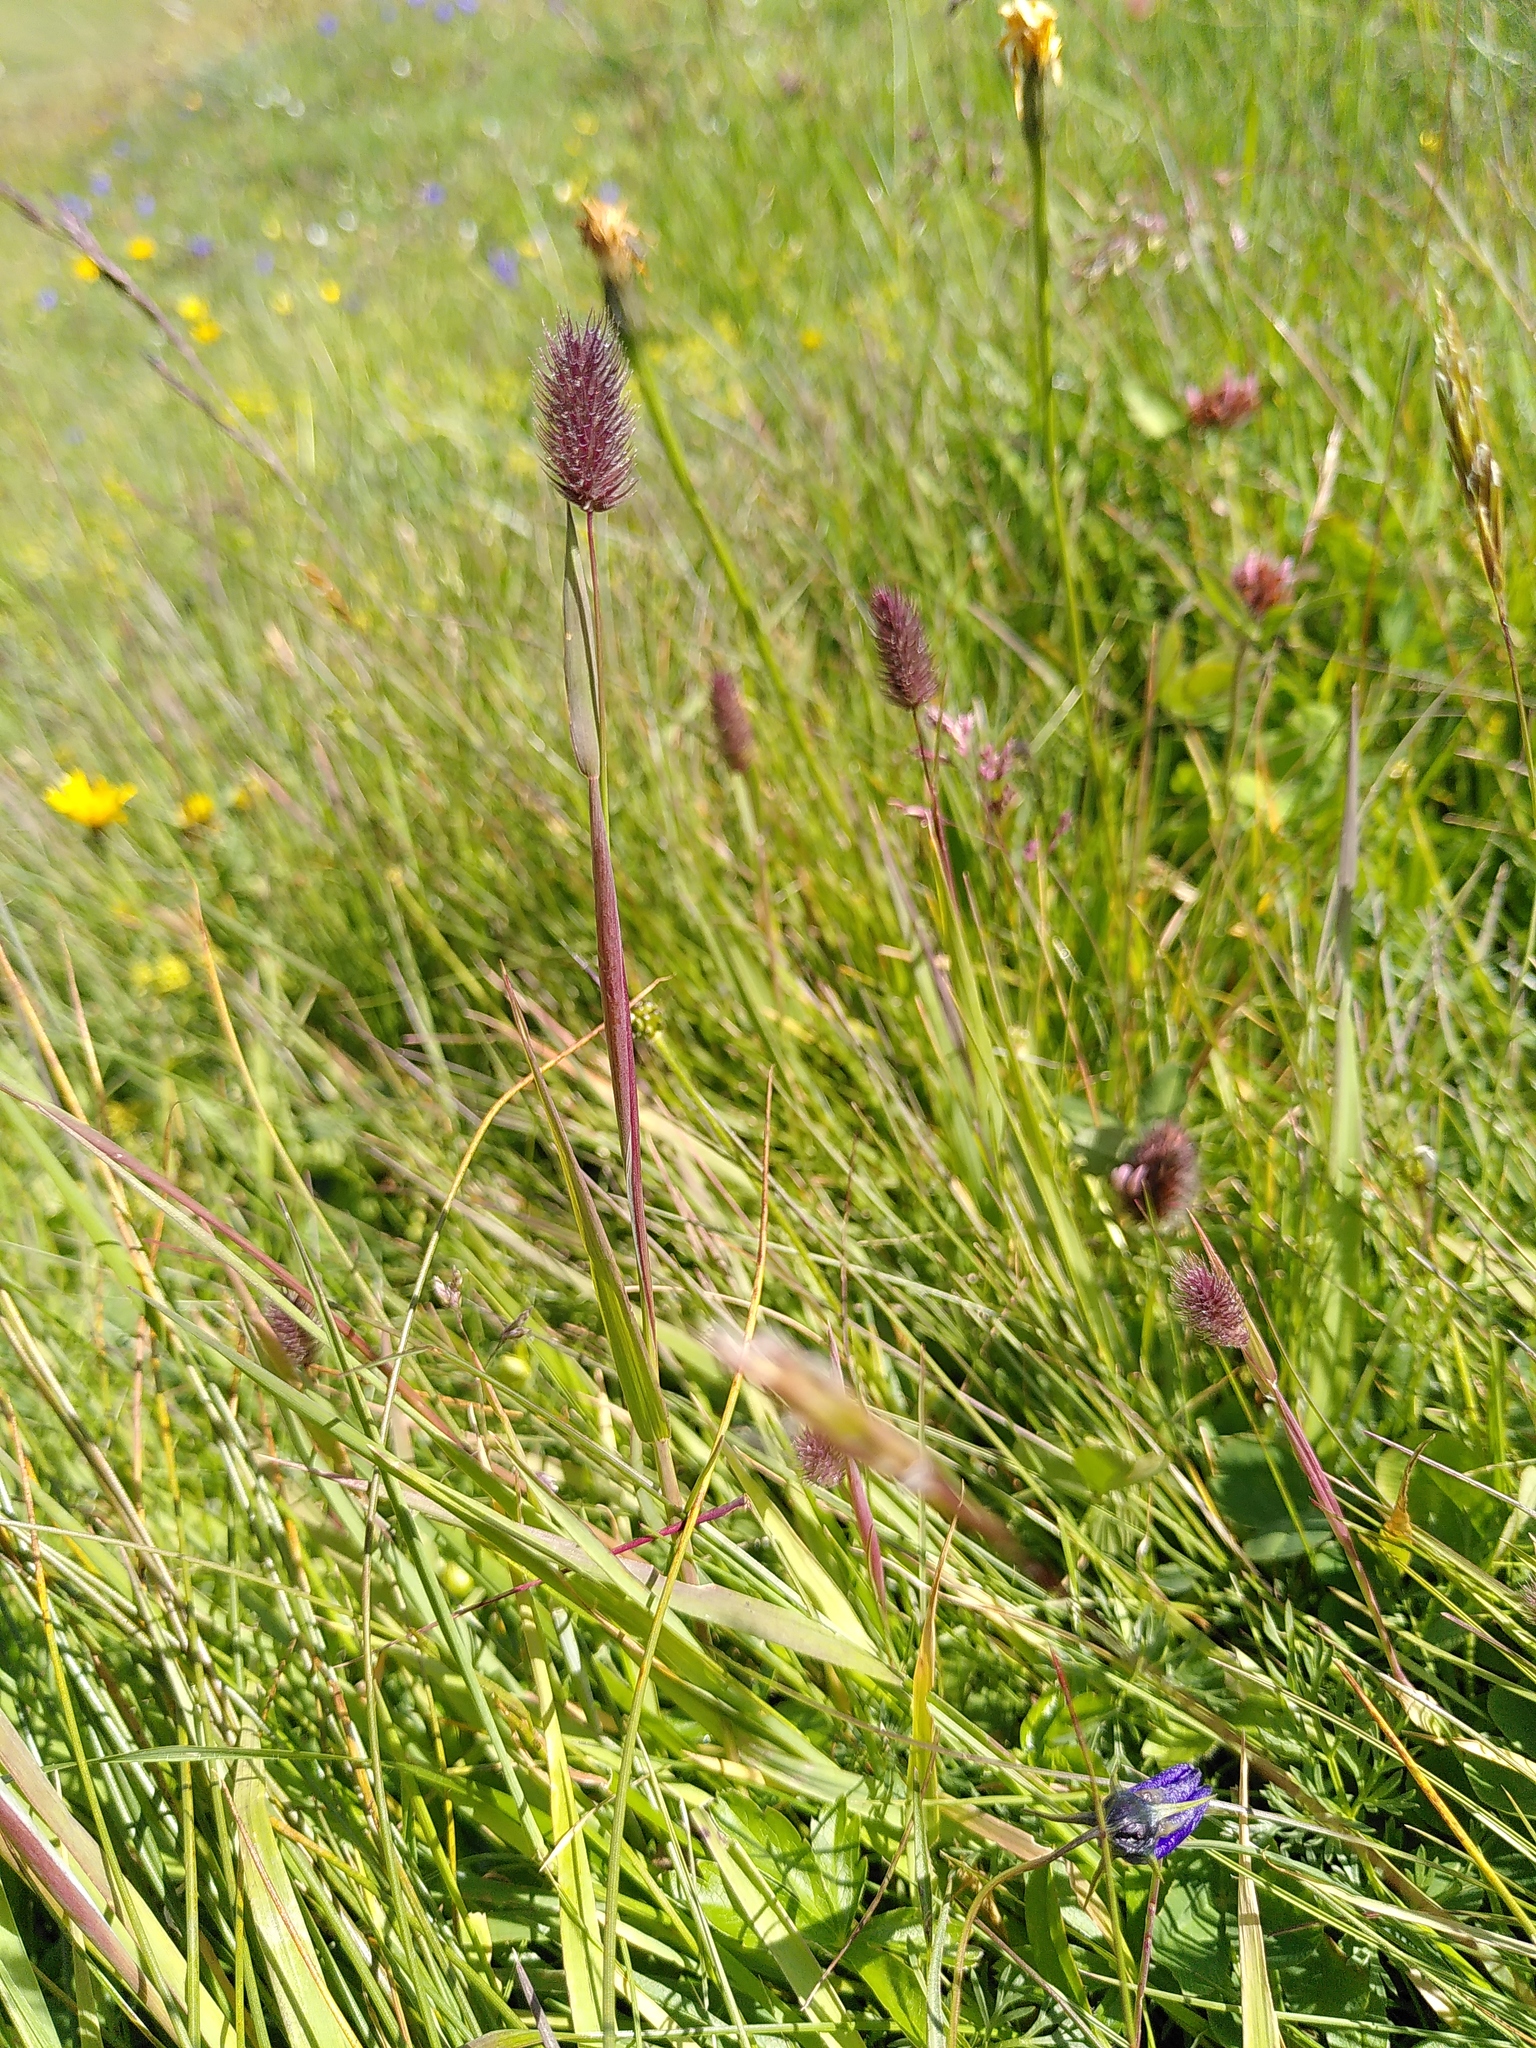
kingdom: Plantae
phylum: Tracheophyta
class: Liliopsida
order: Poales
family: Poaceae
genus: Phleum
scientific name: Phleum alpinum
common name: Alpine cat's-tail
